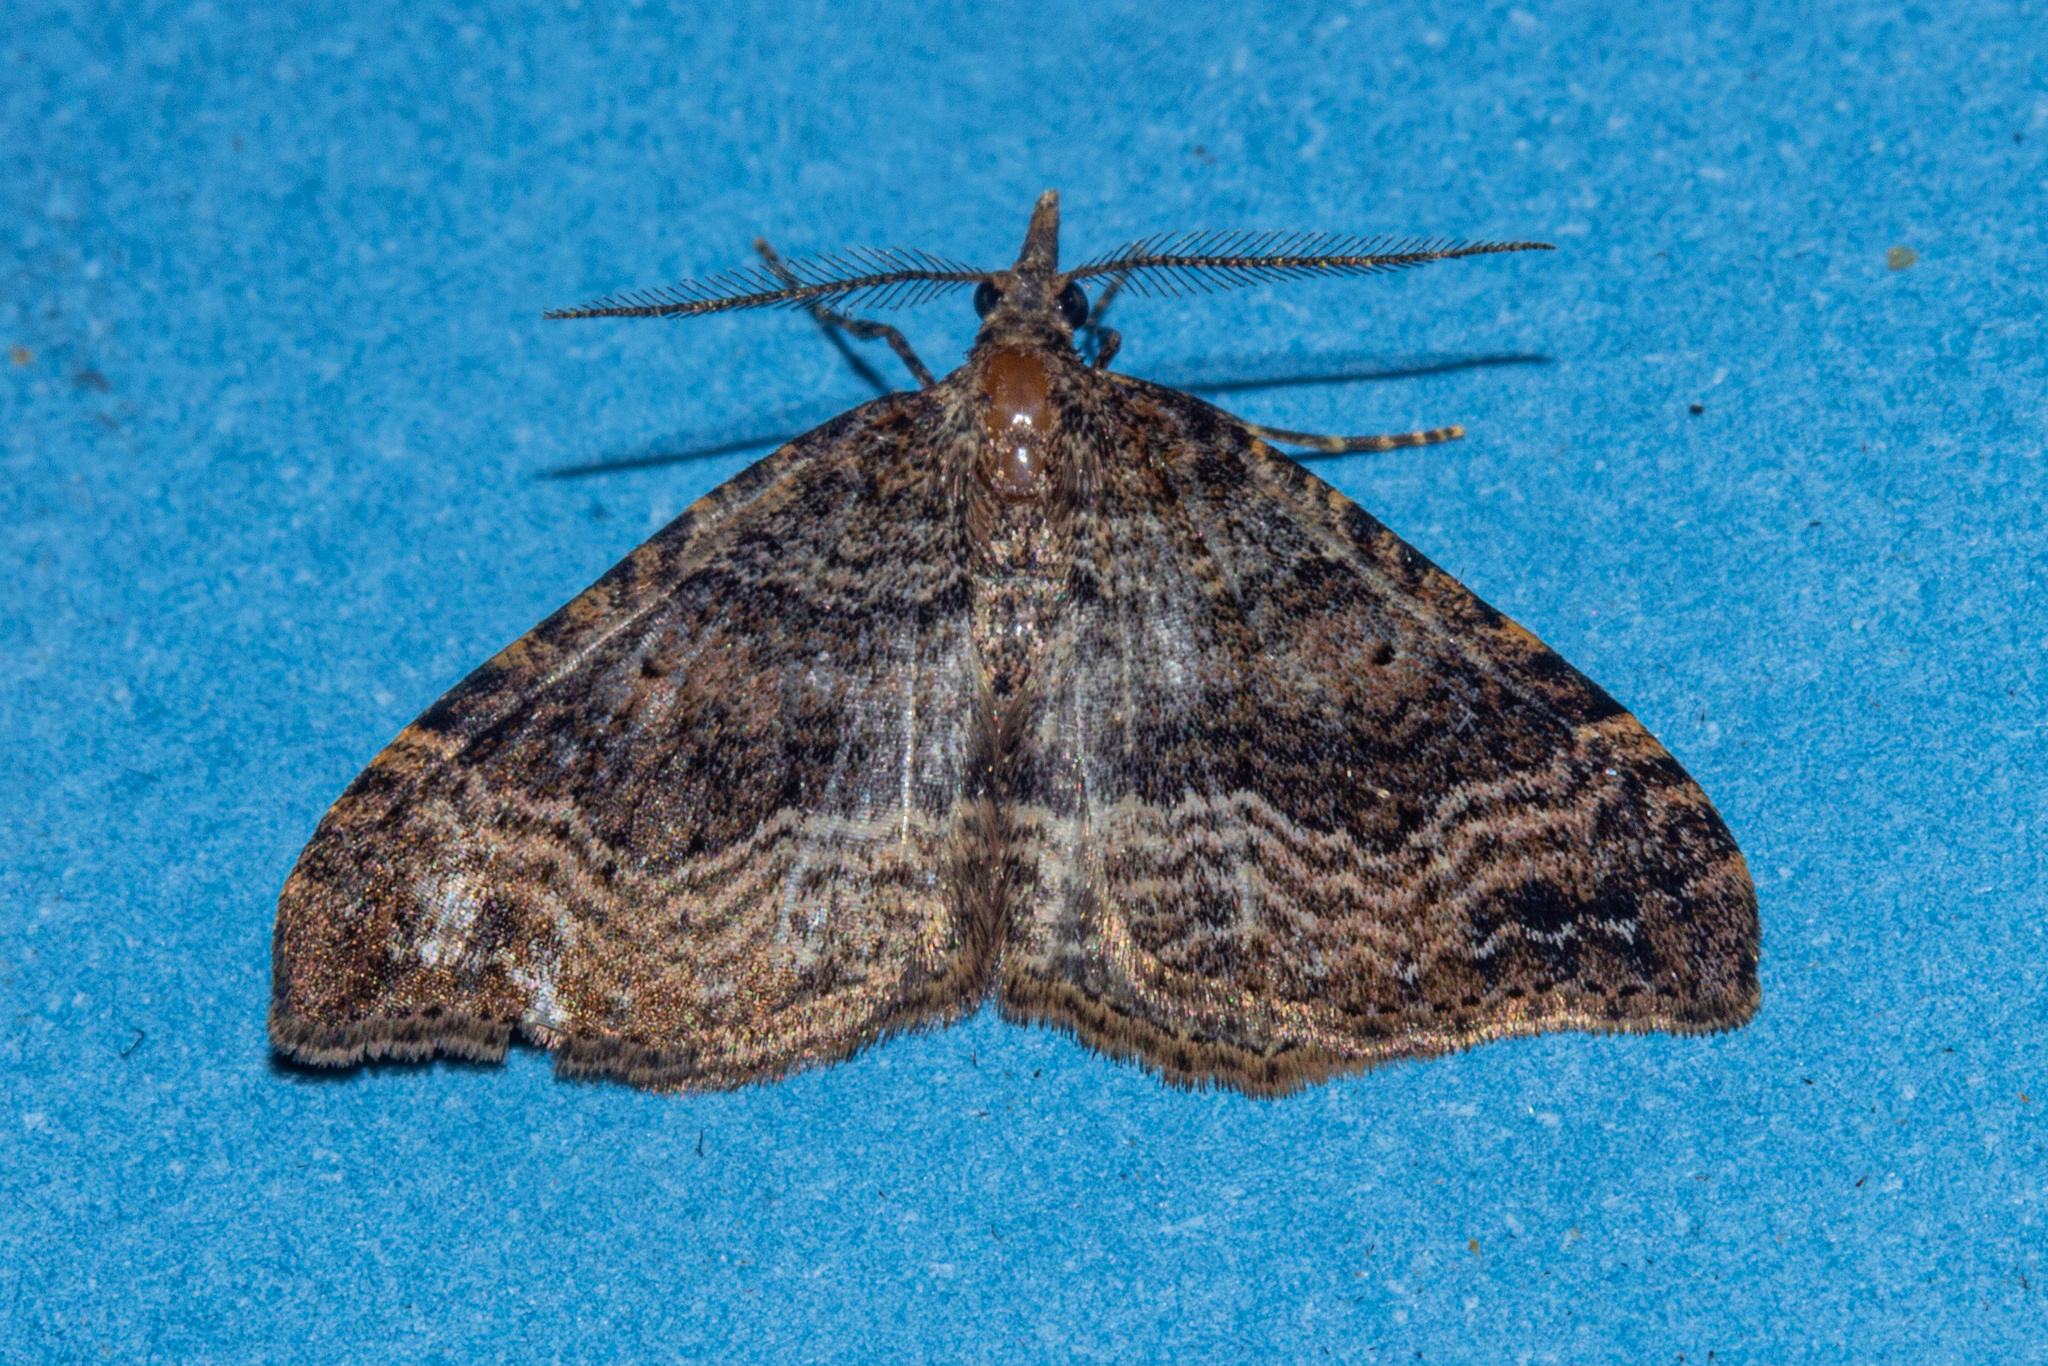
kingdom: Animalia
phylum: Arthropoda
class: Insecta
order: Lepidoptera
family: Geometridae
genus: Homodotis
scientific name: Homodotis falcata
